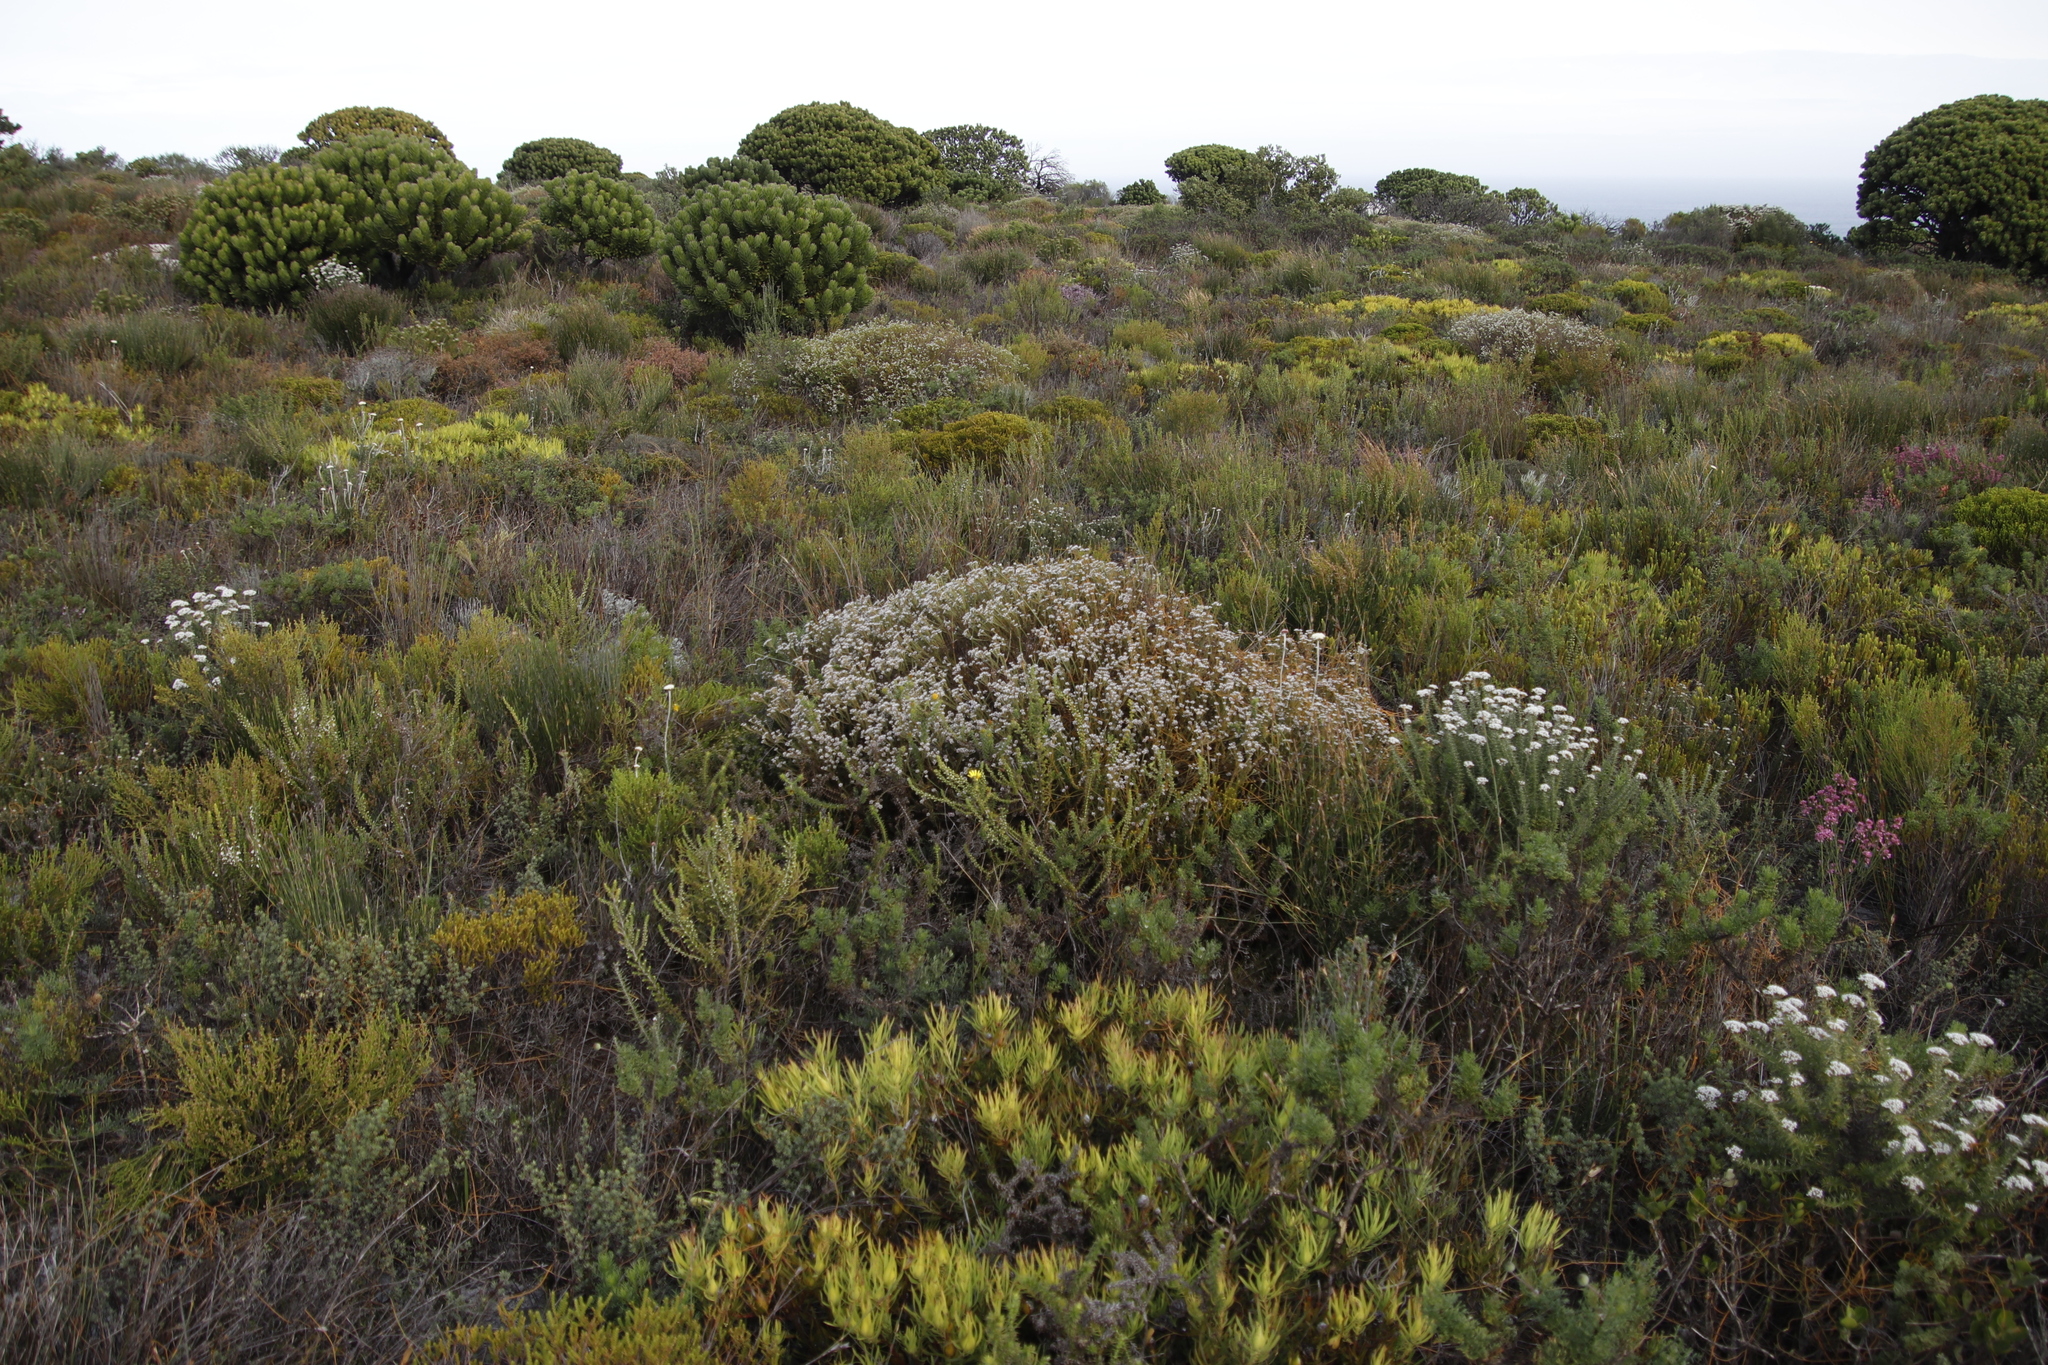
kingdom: Plantae
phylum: Tracheophyta
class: Magnoliopsida
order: Bruniales
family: Bruniaceae
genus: Staavia
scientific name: Staavia radiata
